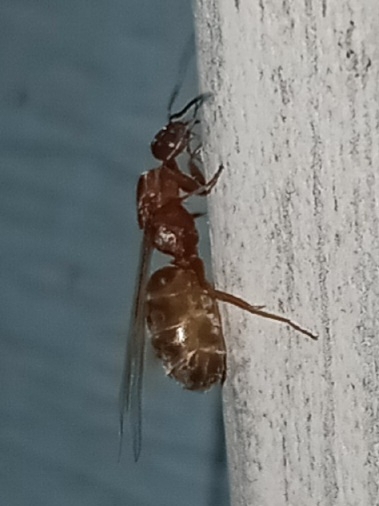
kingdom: Animalia
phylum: Arthropoda
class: Insecta
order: Hymenoptera
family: Formicidae
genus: Dorymyrmex
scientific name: Dorymyrmex bureni
